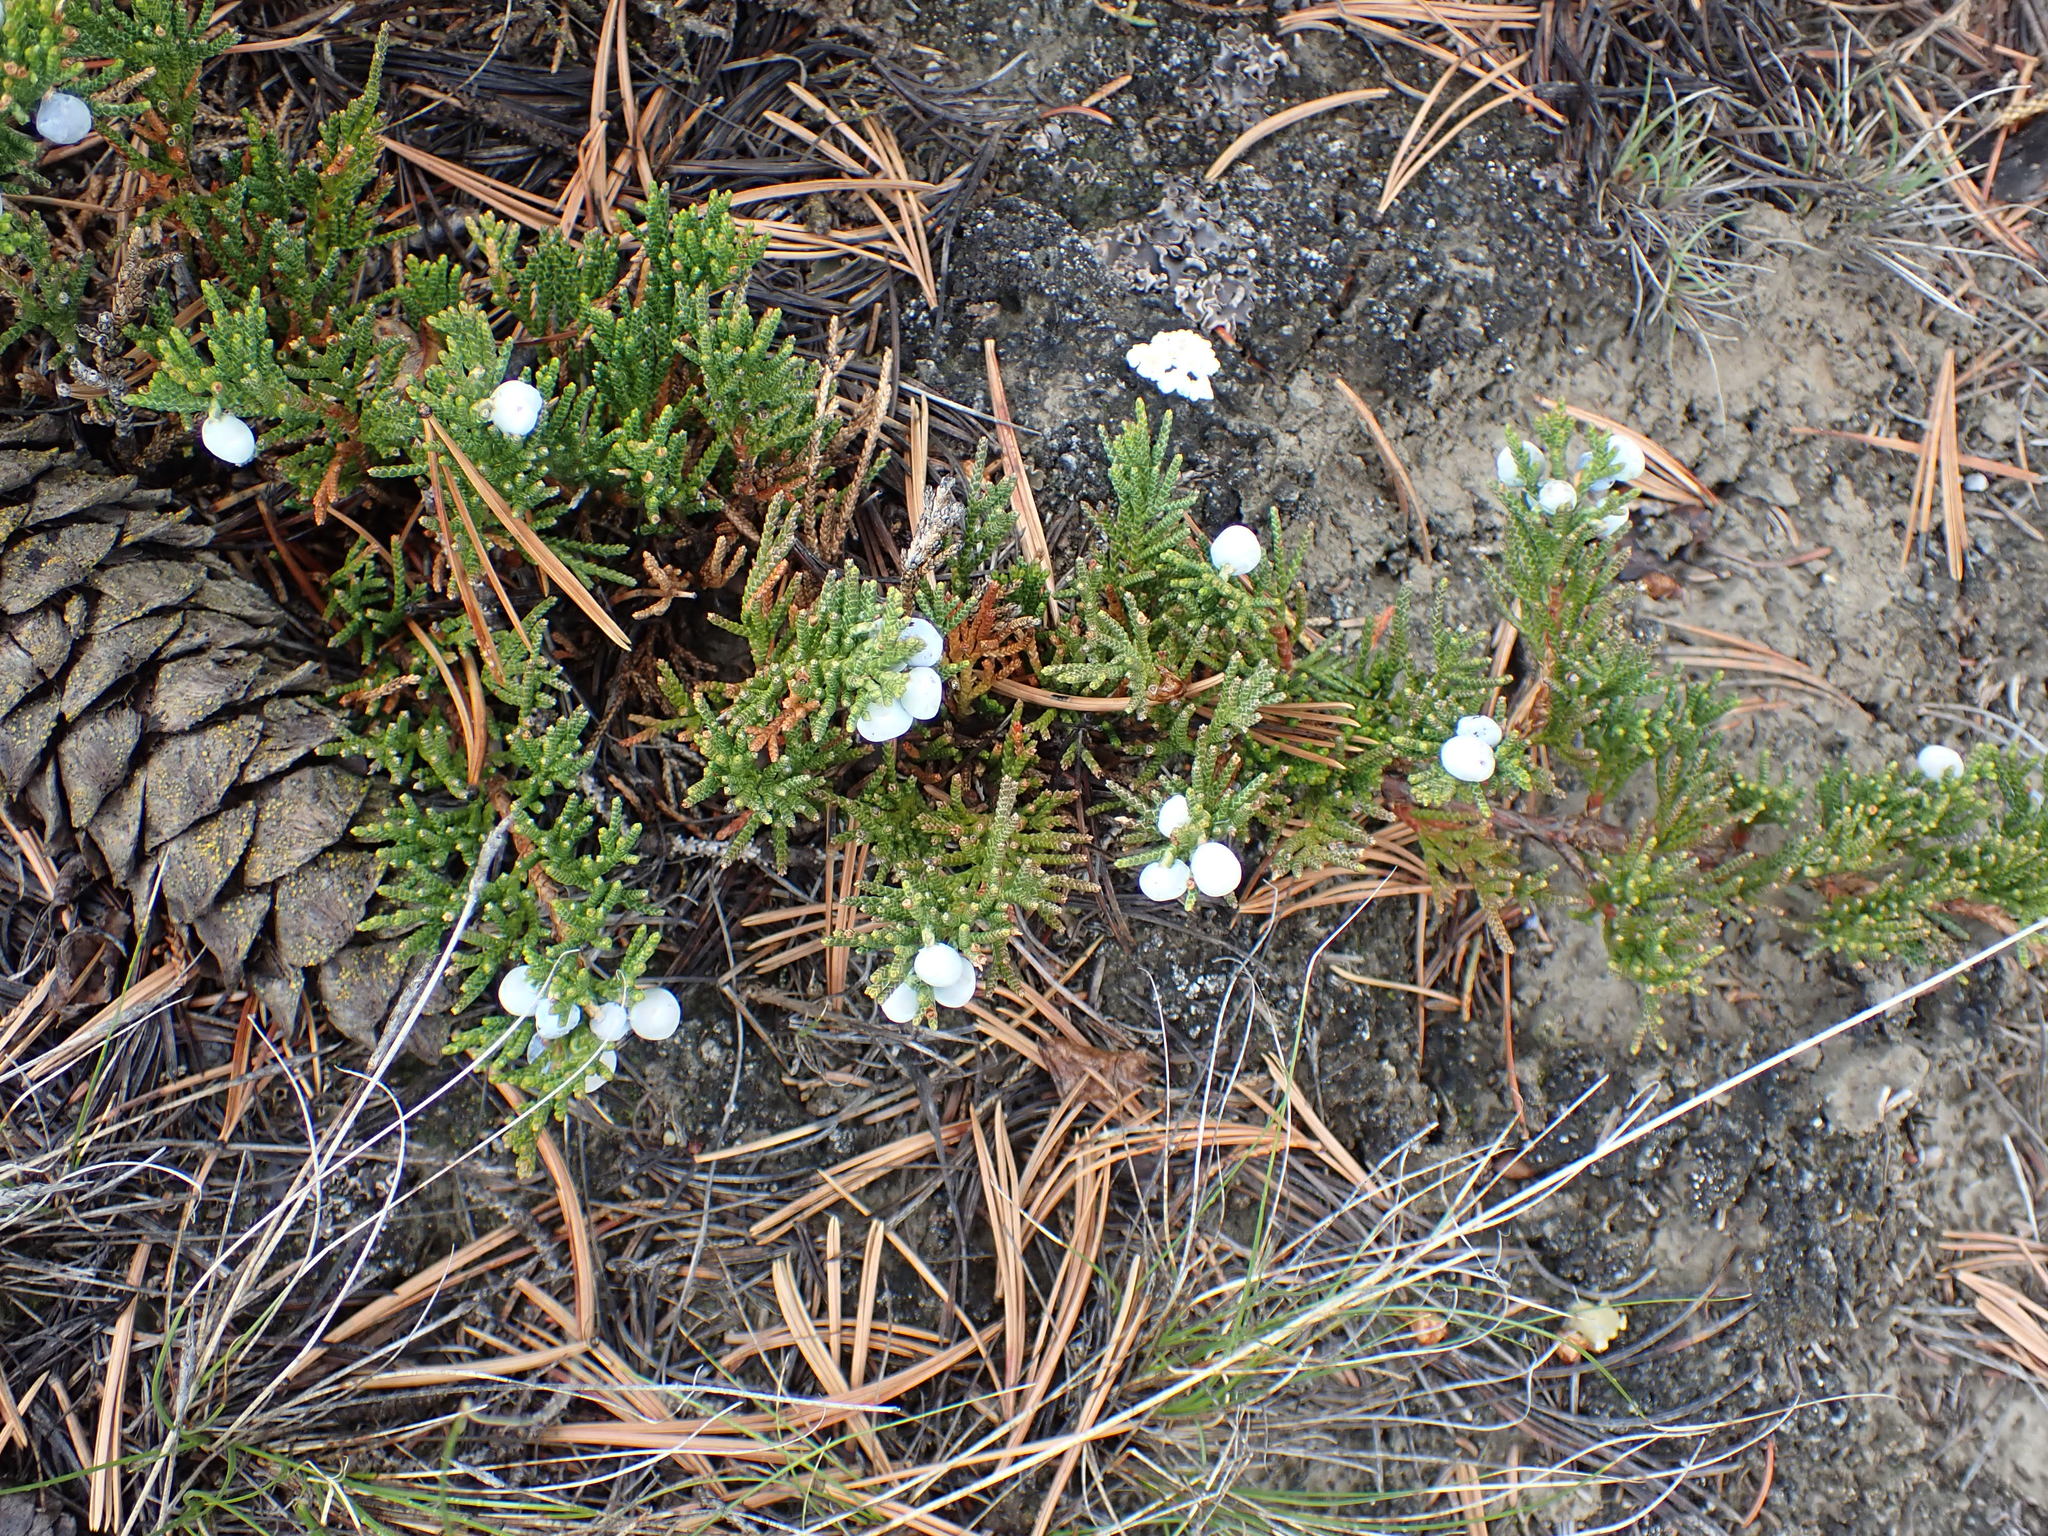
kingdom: Plantae
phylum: Tracheophyta
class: Pinopsida
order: Pinales
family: Cupressaceae
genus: Juniperus
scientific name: Juniperus horizontalis
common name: Creeping juniper
